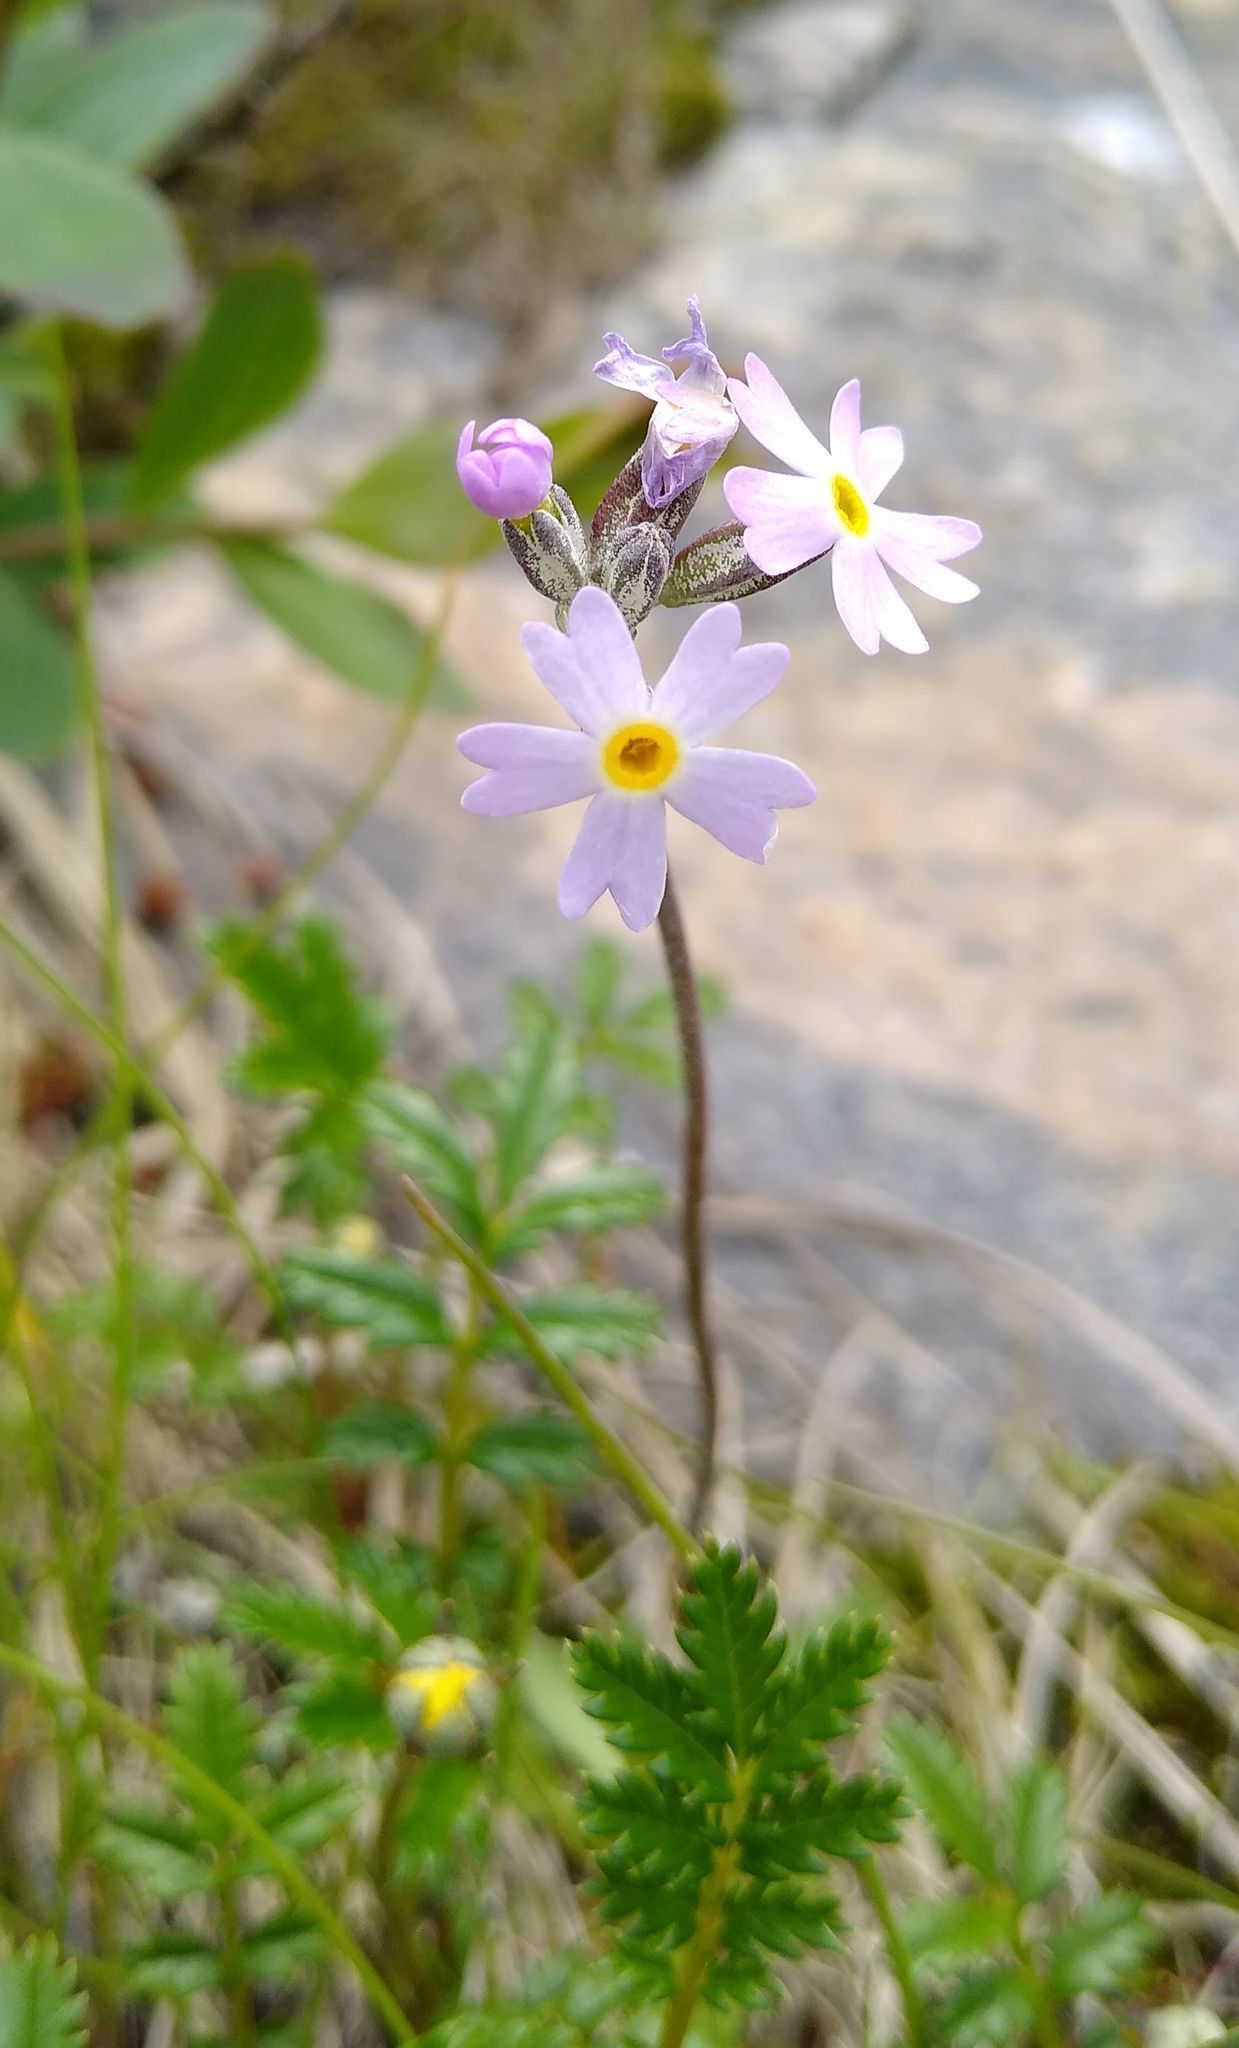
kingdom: Plantae
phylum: Tracheophyta
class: Magnoliopsida
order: Ericales
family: Primulaceae
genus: Primula
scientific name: Primula stricta
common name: Coastal primrose
